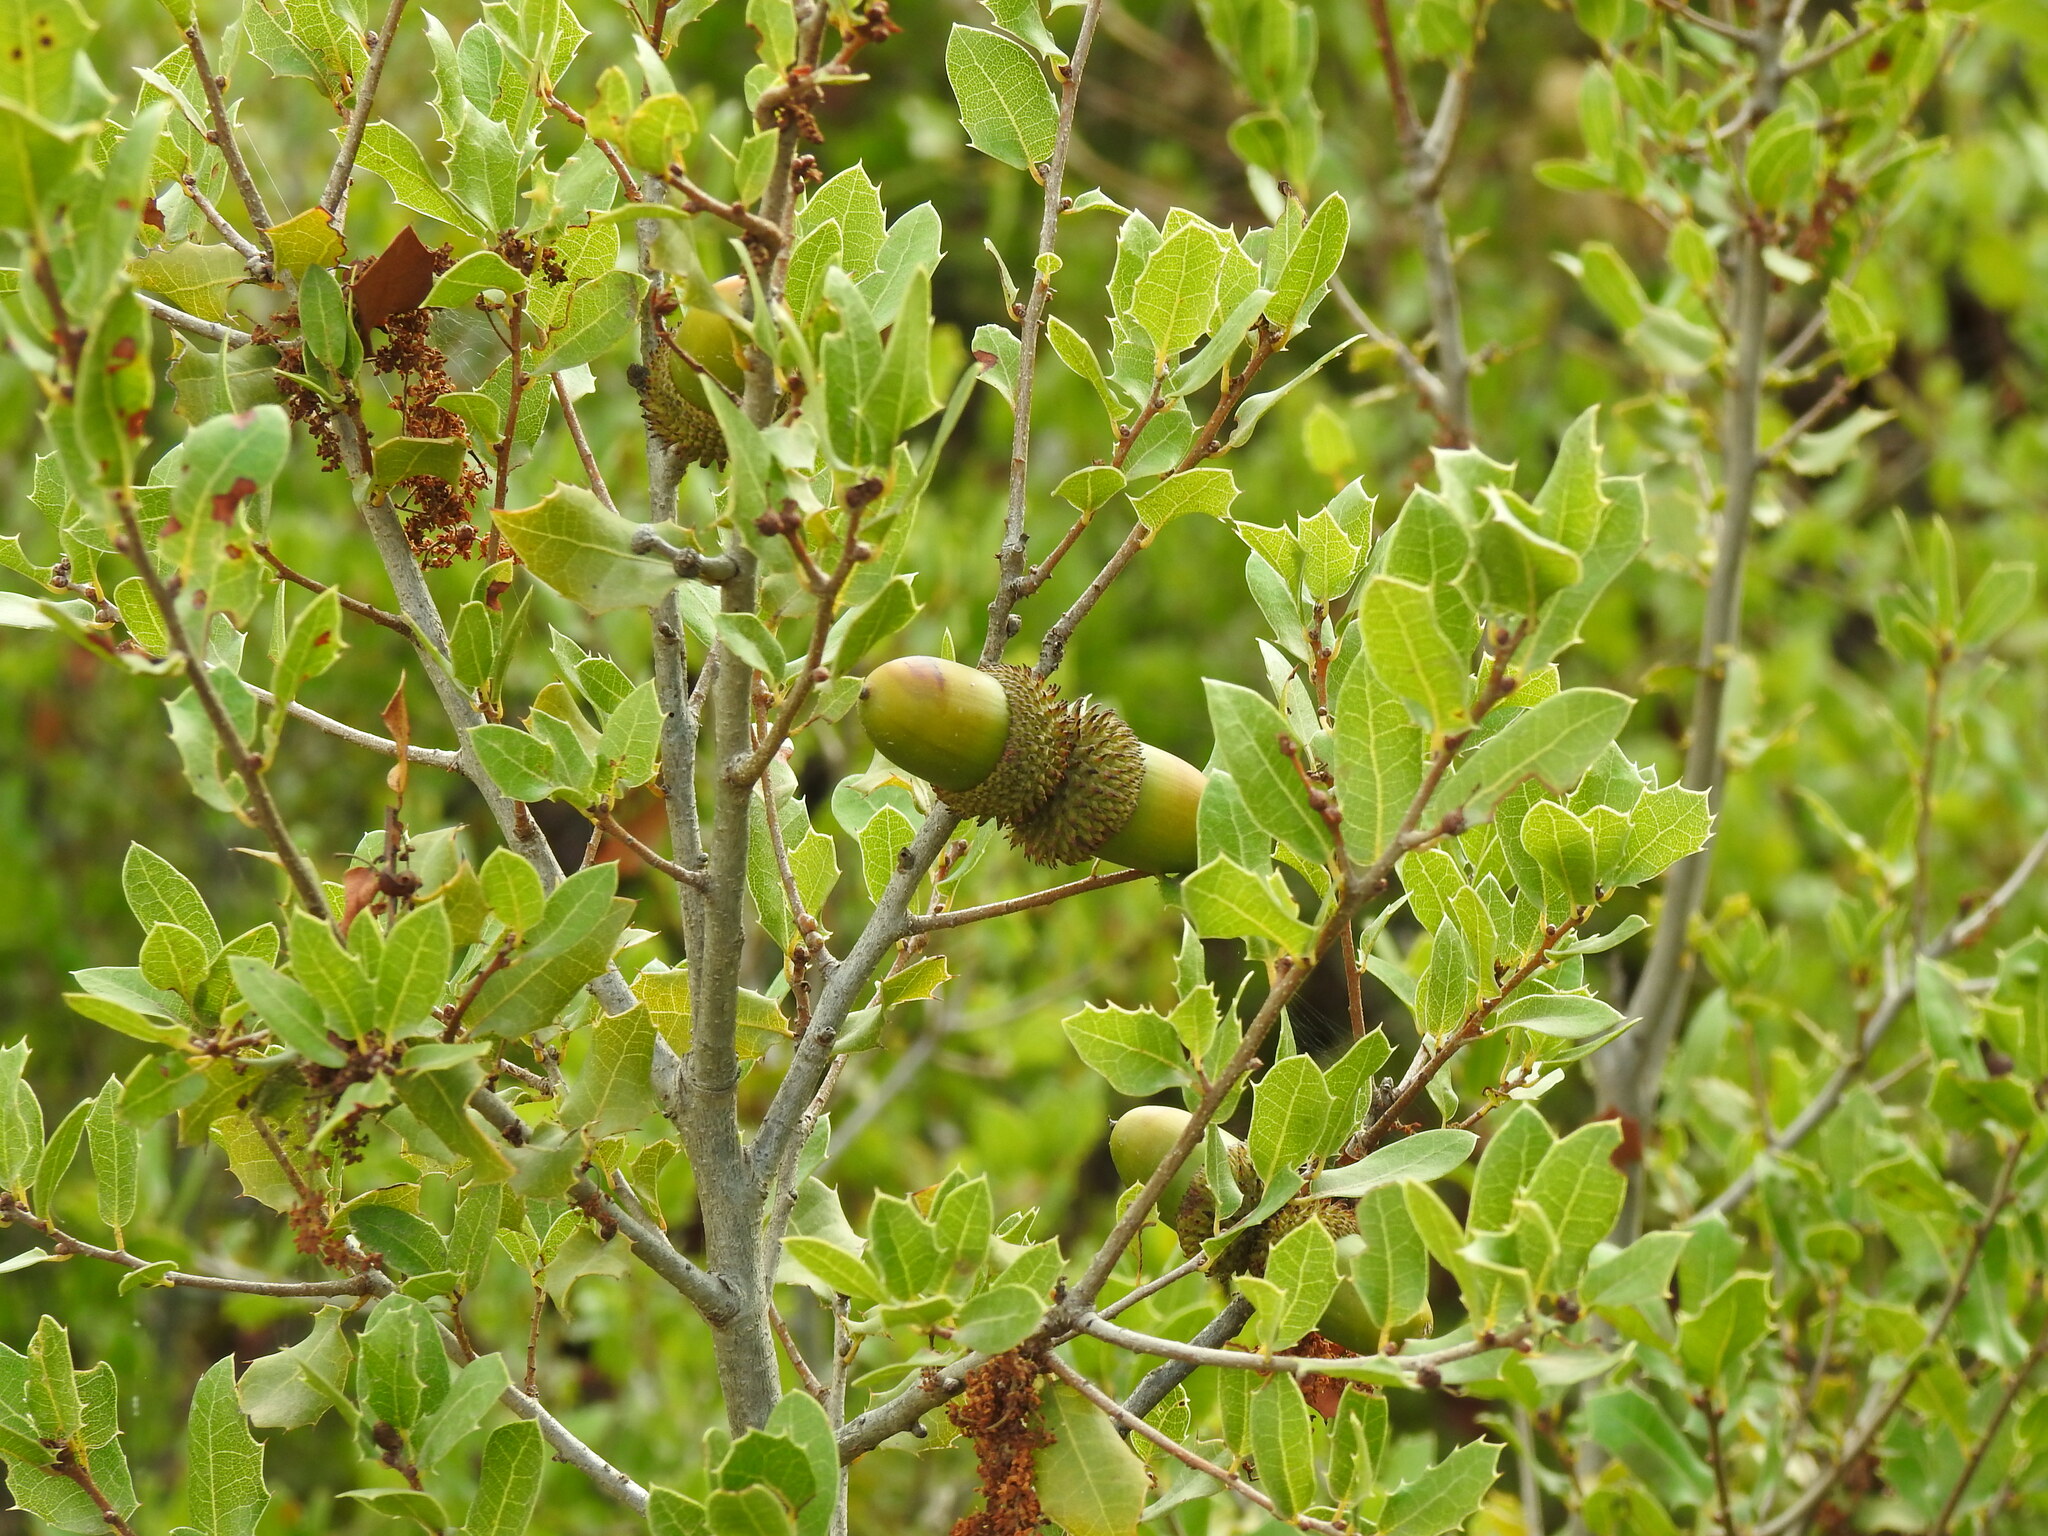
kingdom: Plantae
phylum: Tracheophyta
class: Magnoliopsida
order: Fagales
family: Fagaceae
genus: Quercus
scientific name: Quercus coccifera
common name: Kermes oak
